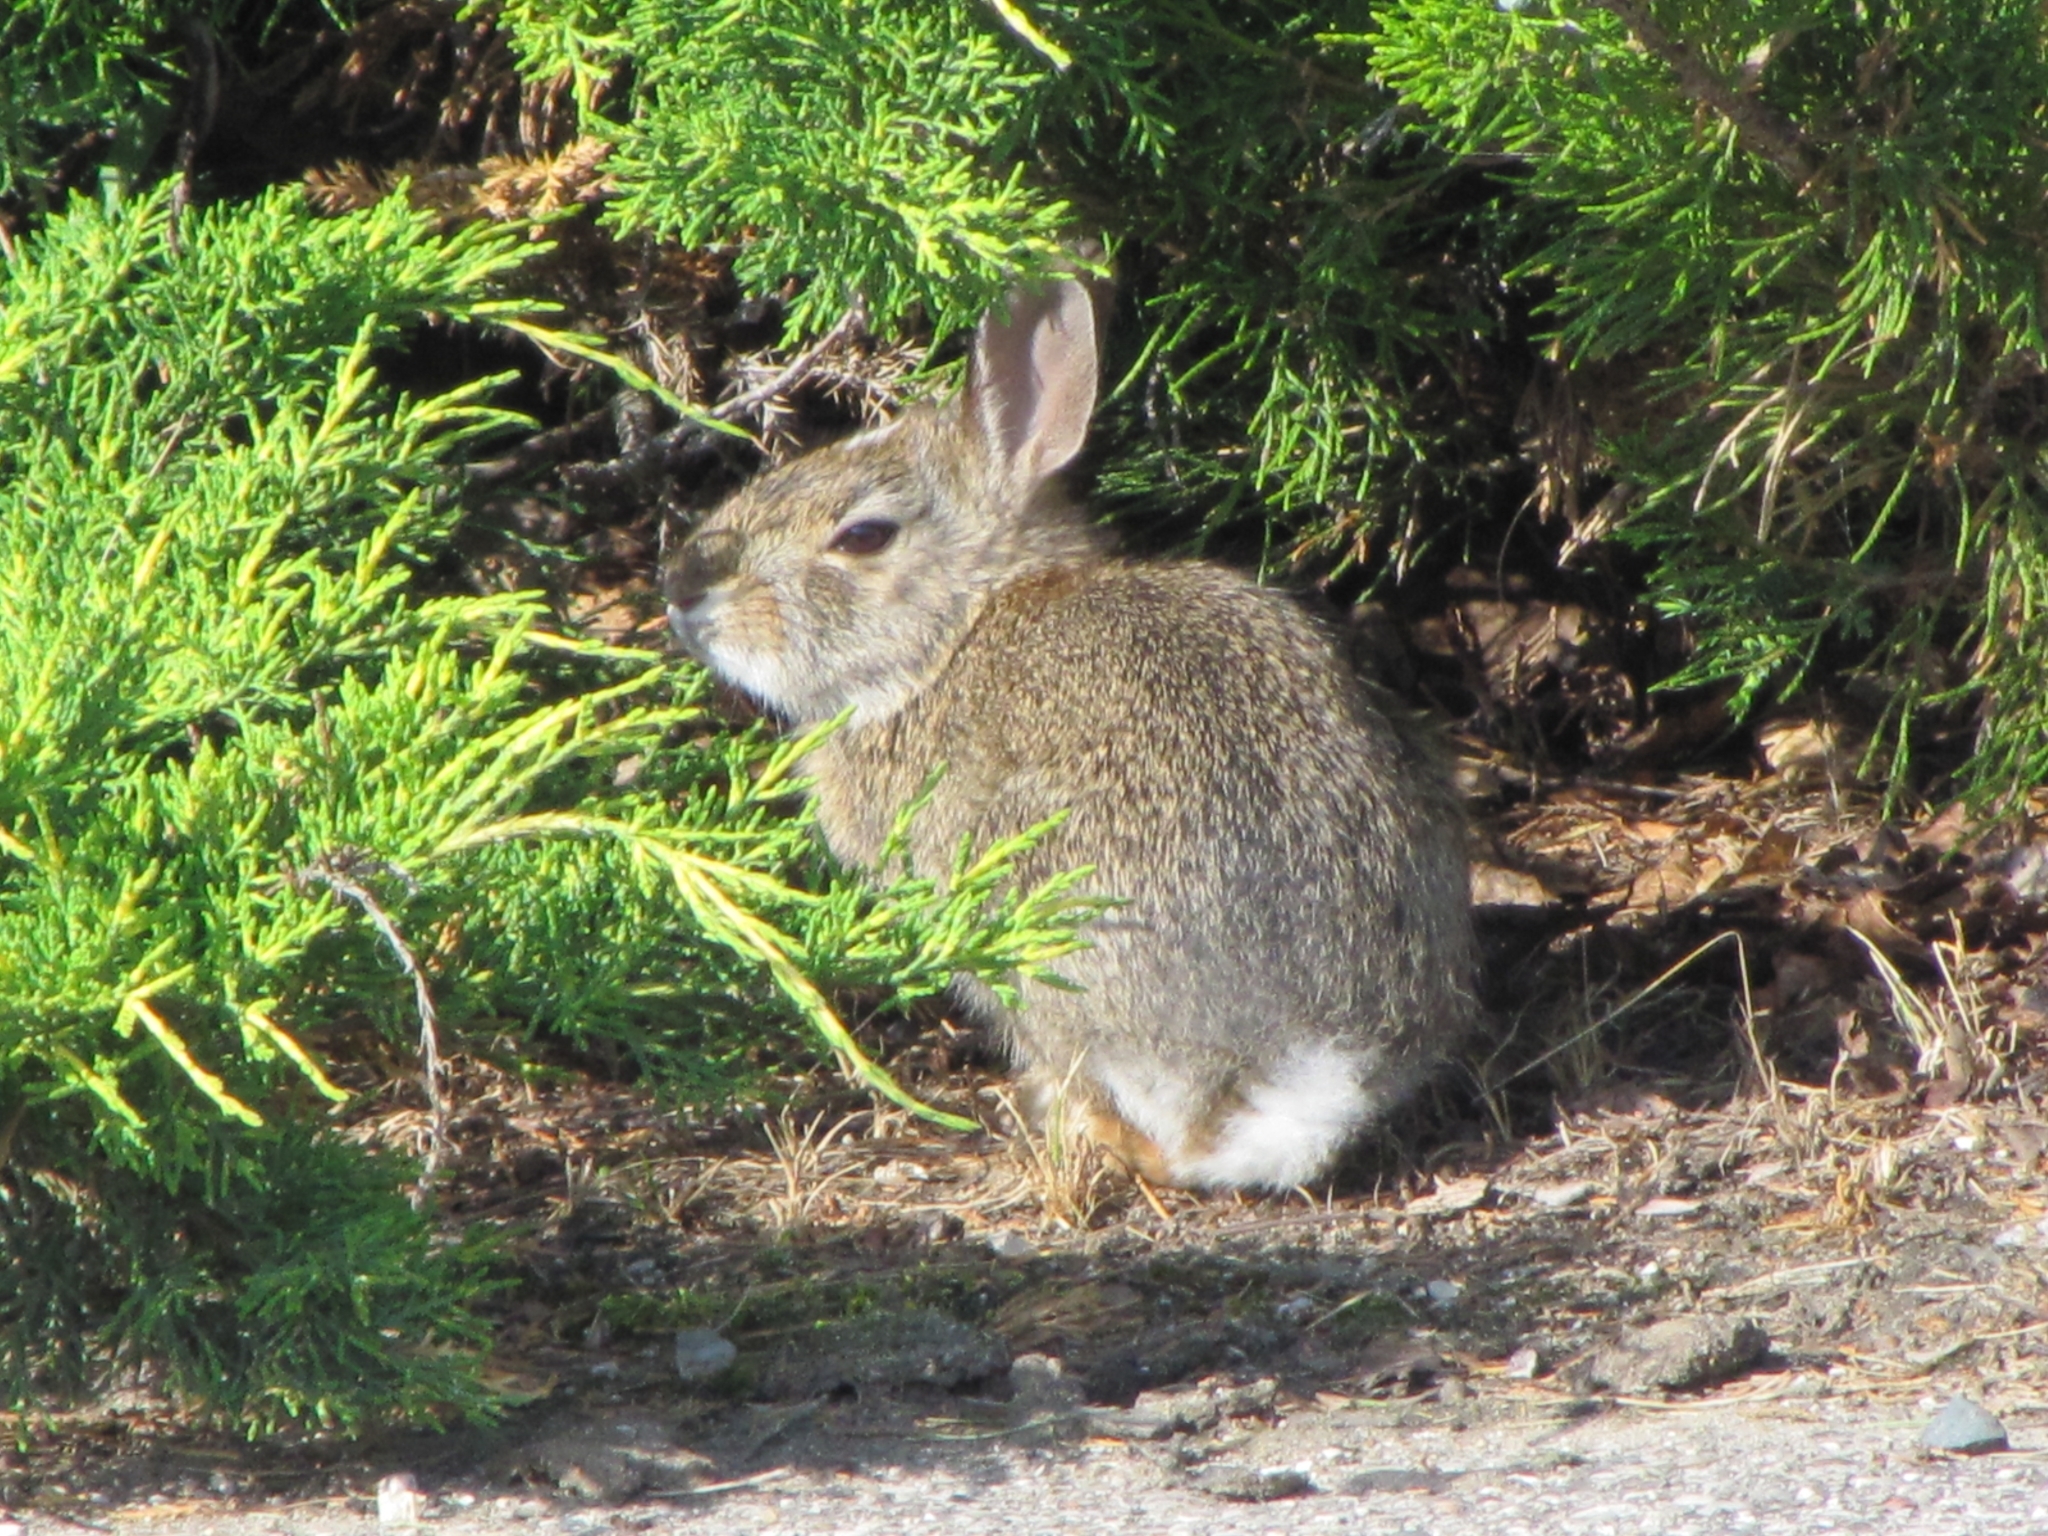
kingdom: Animalia
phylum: Chordata
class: Mammalia
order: Lagomorpha
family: Leporidae
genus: Sylvilagus
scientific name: Sylvilagus floridanus
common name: Eastern cottontail
